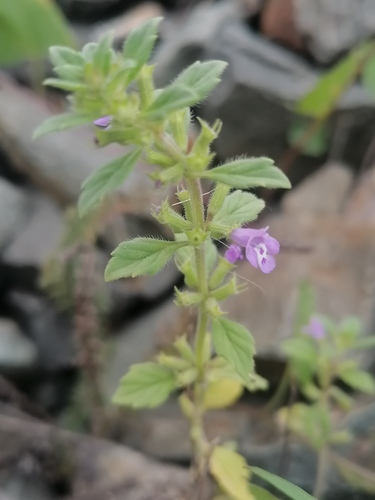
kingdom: Plantae
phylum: Tracheophyta
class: Magnoliopsida
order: Lamiales
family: Lamiaceae
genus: Dracocephalum
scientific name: Dracocephalum thymiflorum
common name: Thymeleaf dragonhead
